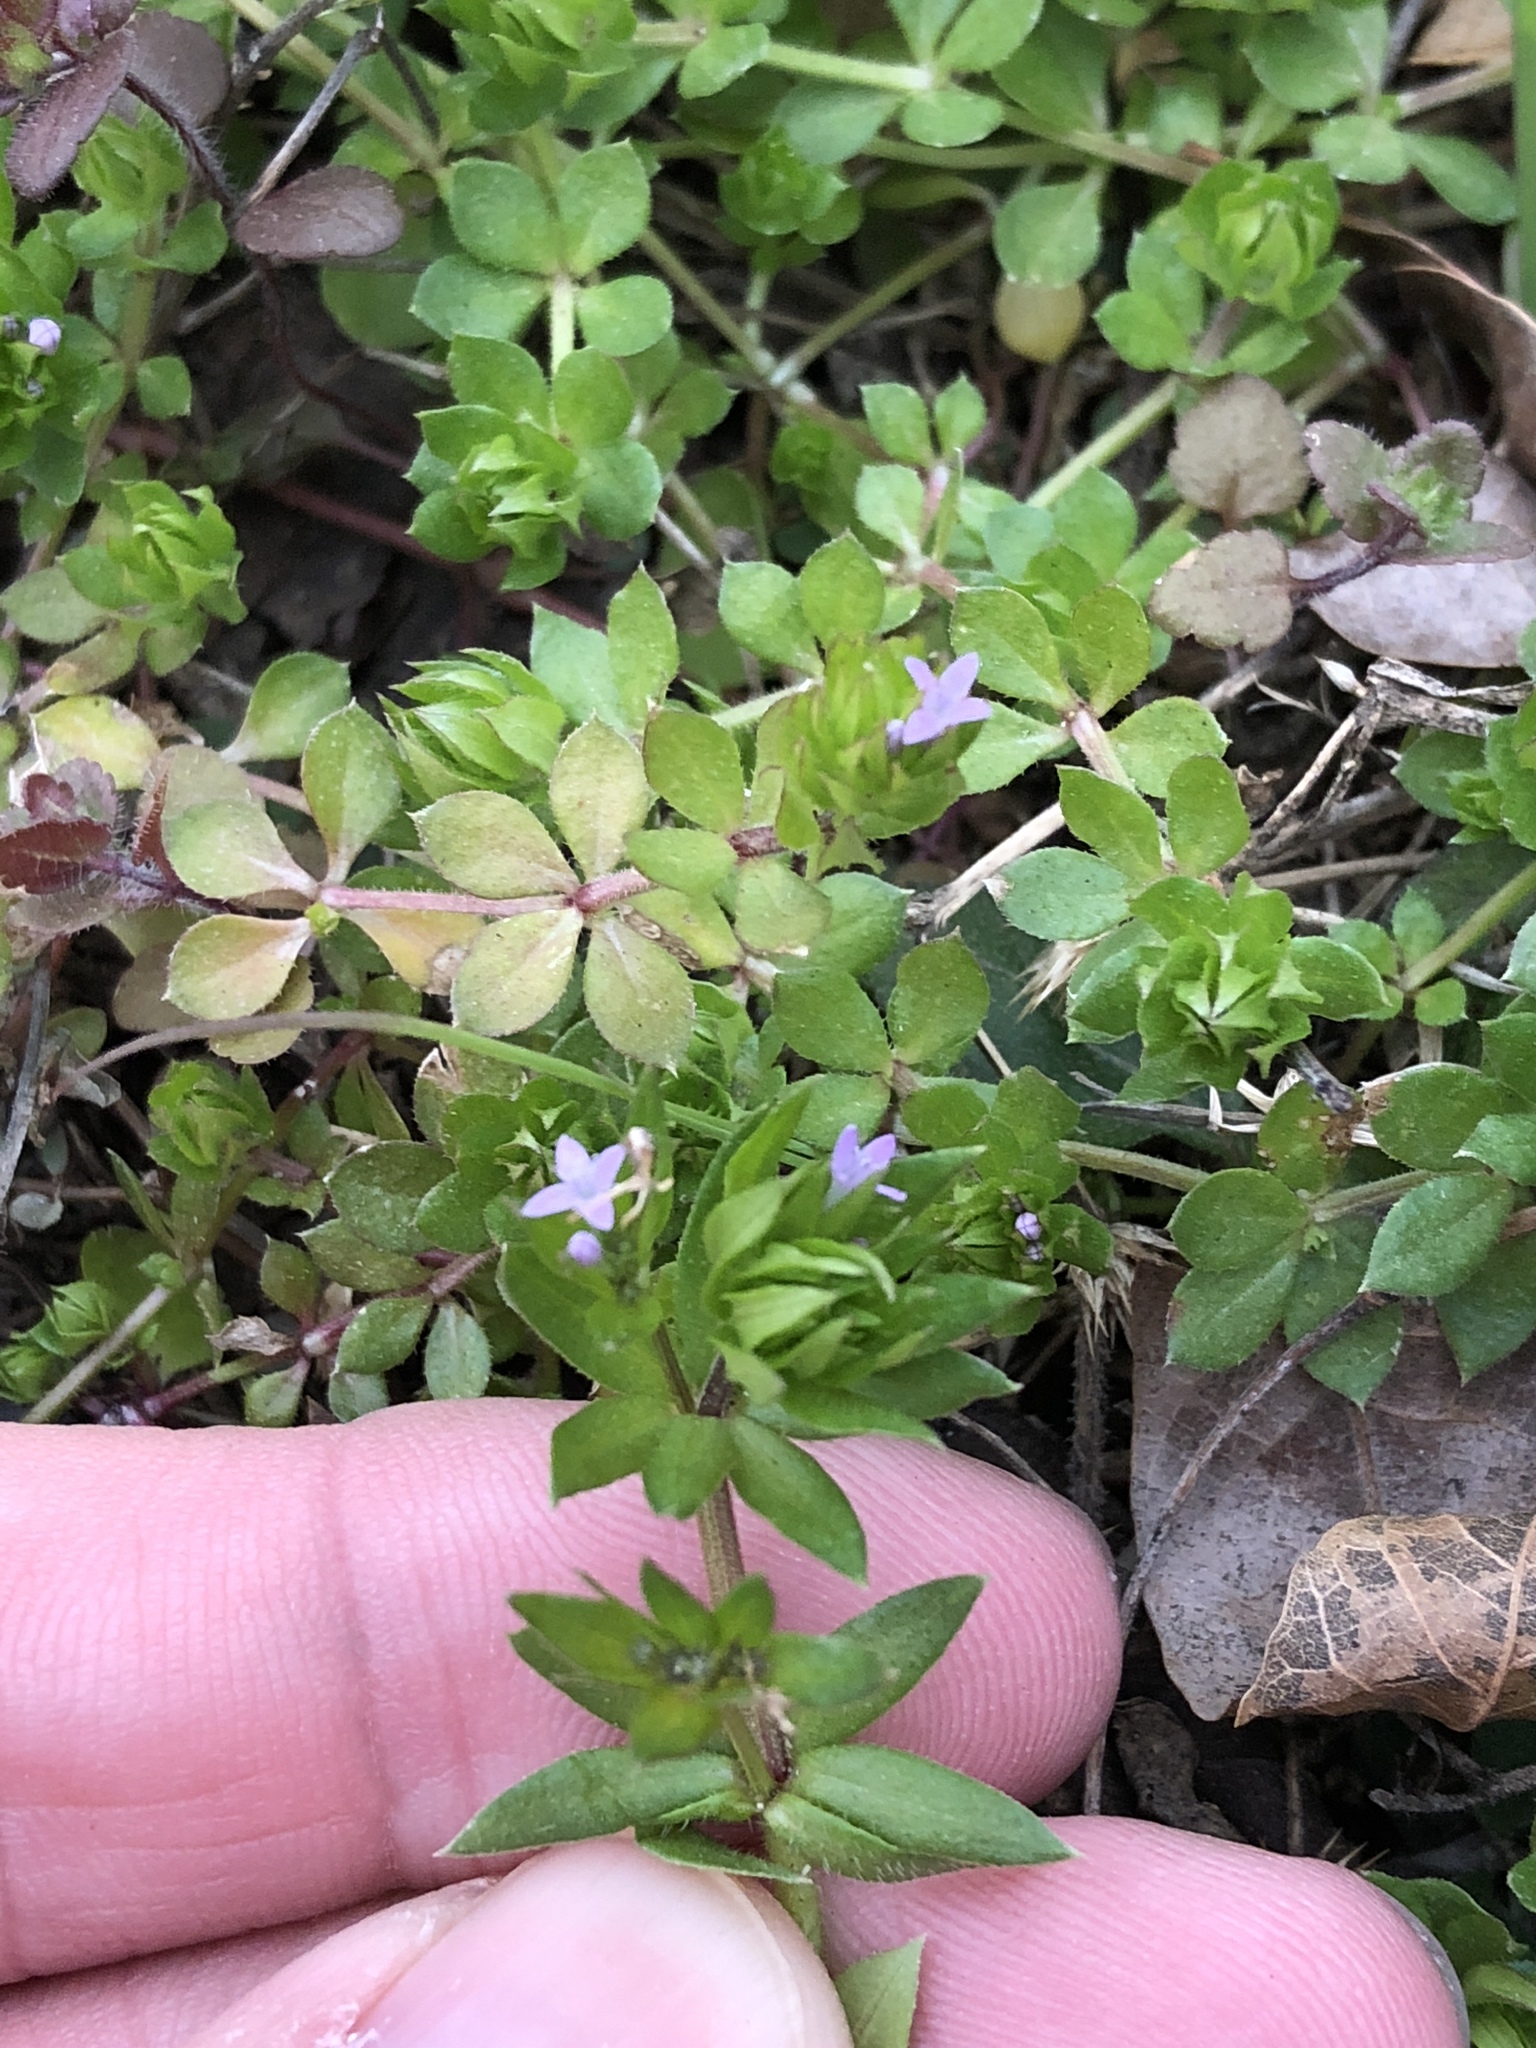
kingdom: Plantae
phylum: Tracheophyta
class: Magnoliopsida
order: Gentianales
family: Rubiaceae
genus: Sherardia
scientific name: Sherardia arvensis
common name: Field madder
